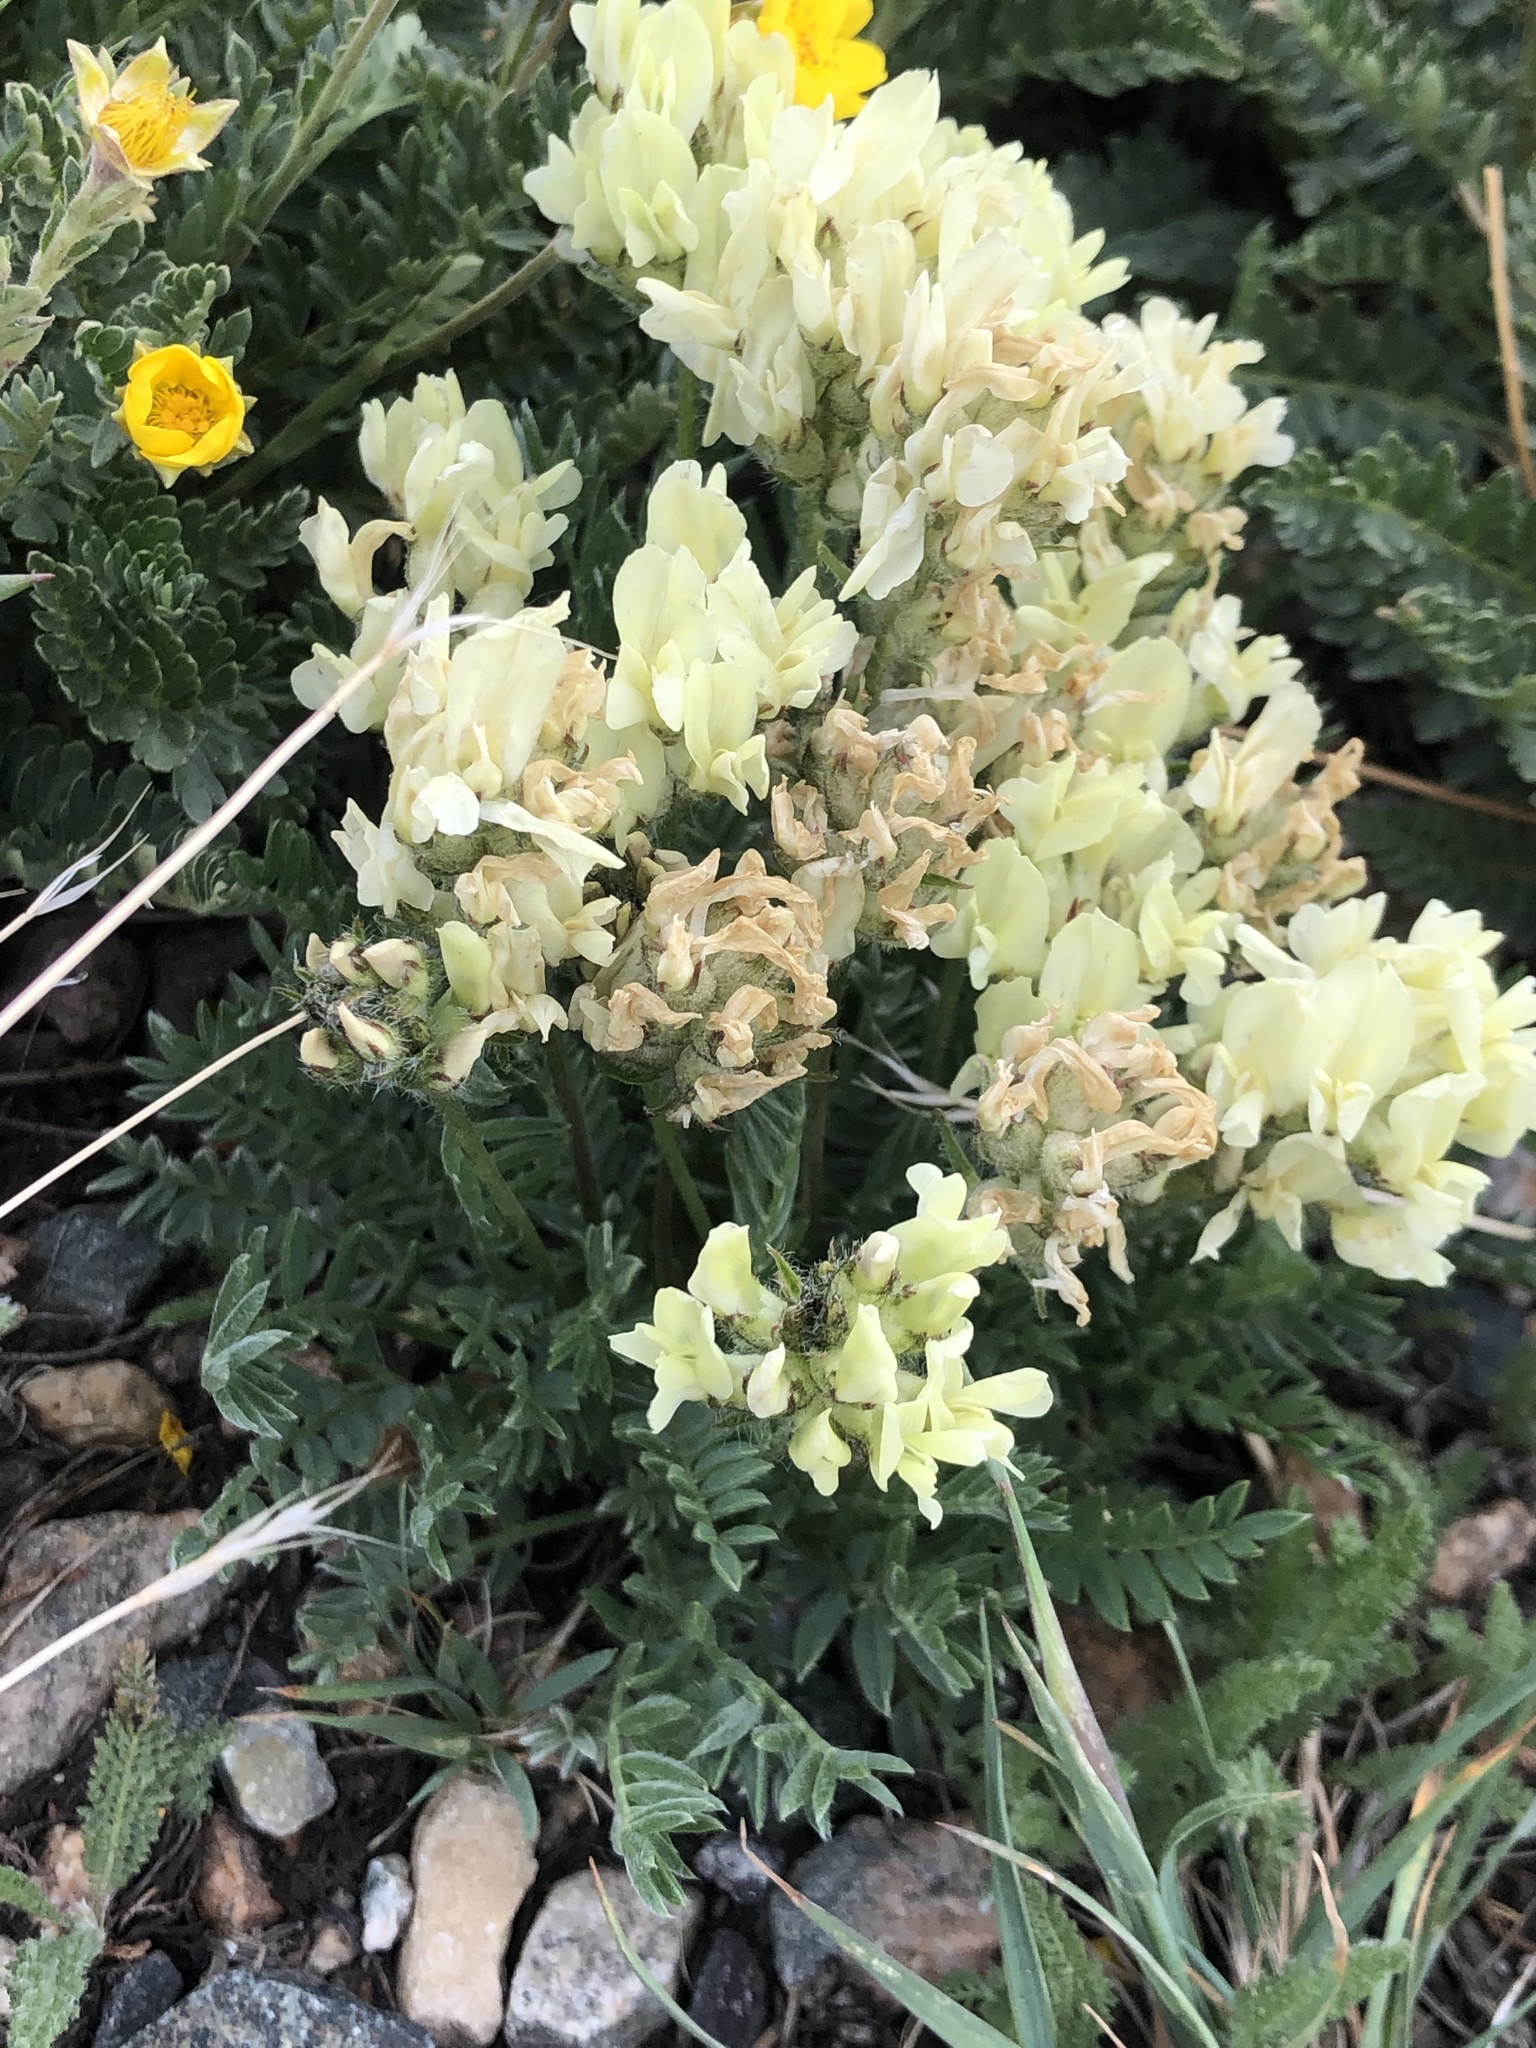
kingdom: Plantae
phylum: Tracheophyta
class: Magnoliopsida
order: Fabales
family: Fabaceae
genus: Oxytropis
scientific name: Oxytropis campestris
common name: Field locoweed
